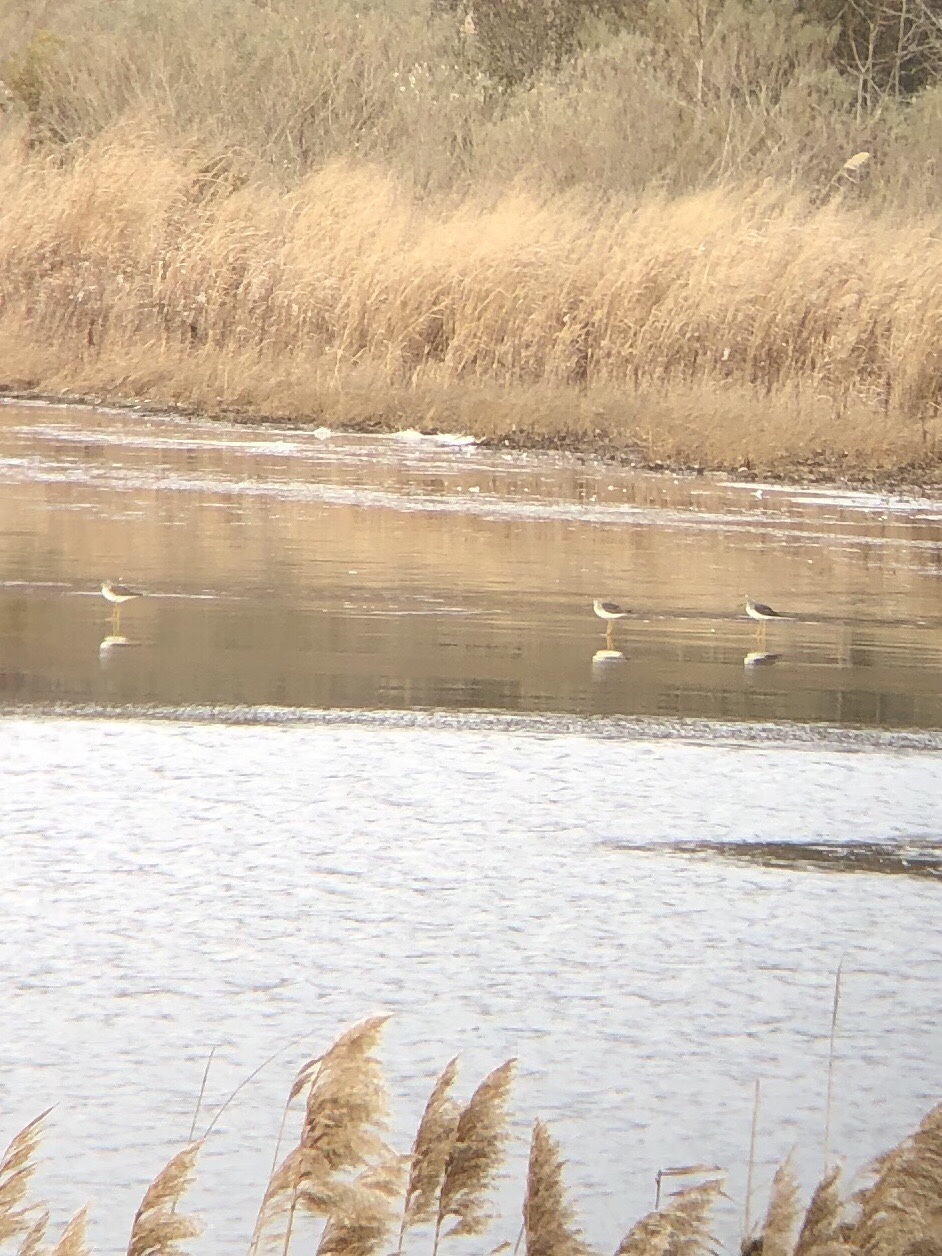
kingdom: Animalia
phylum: Chordata
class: Aves
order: Charadriiformes
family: Scolopacidae
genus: Tringa
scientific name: Tringa melanoleuca
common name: Greater yellowlegs
